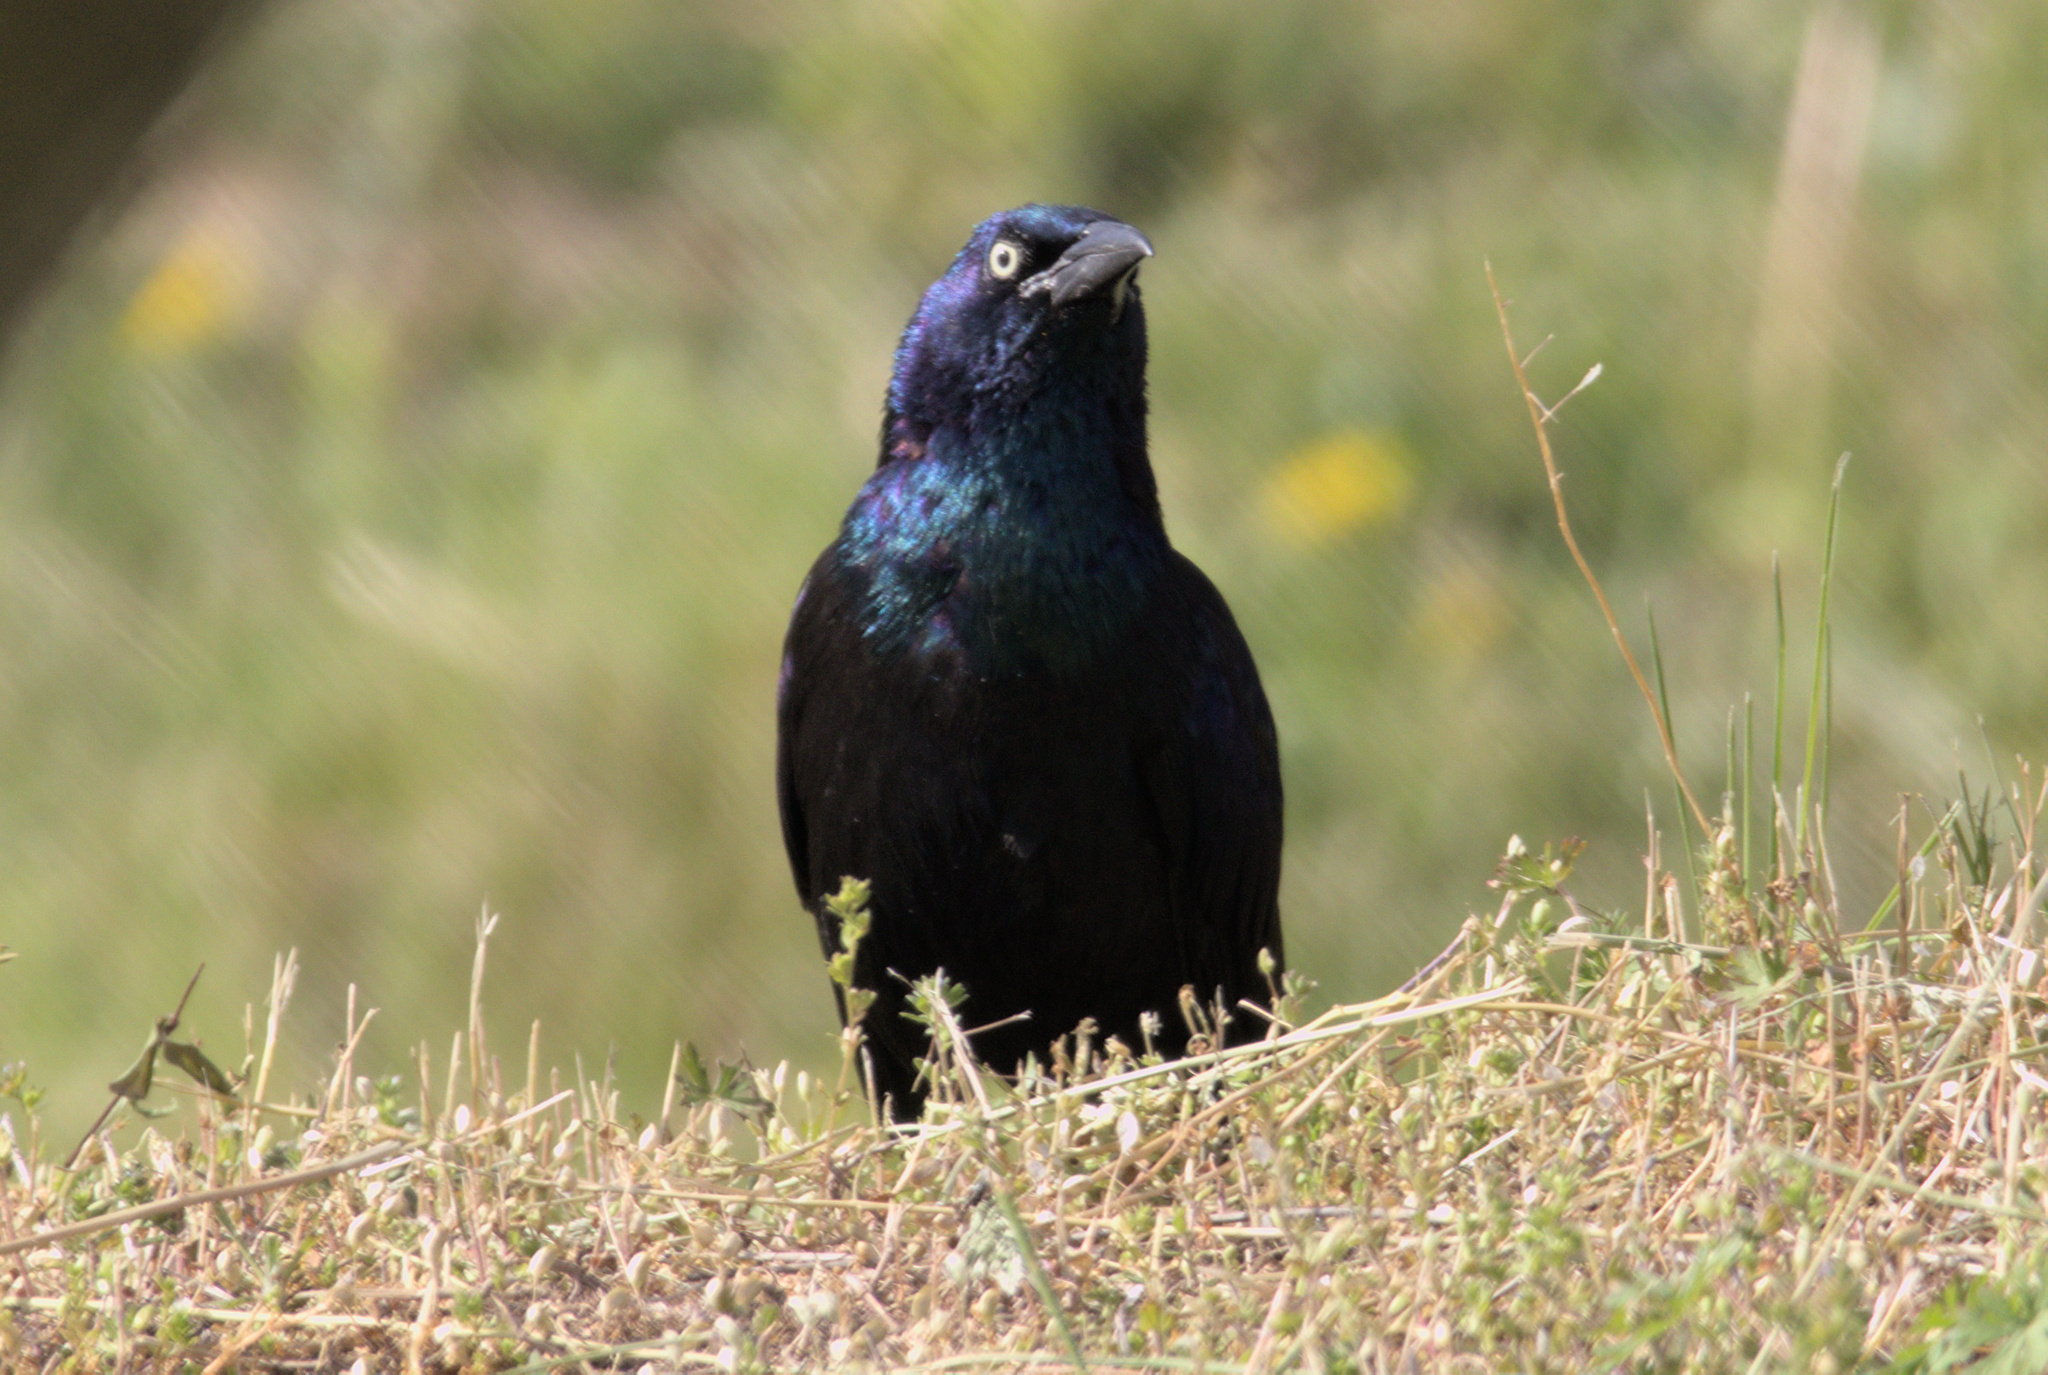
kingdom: Animalia
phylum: Chordata
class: Aves
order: Passeriformes
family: Icteridae
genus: Quiscalus
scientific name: Quiscalus quiscula
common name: Common grackle
